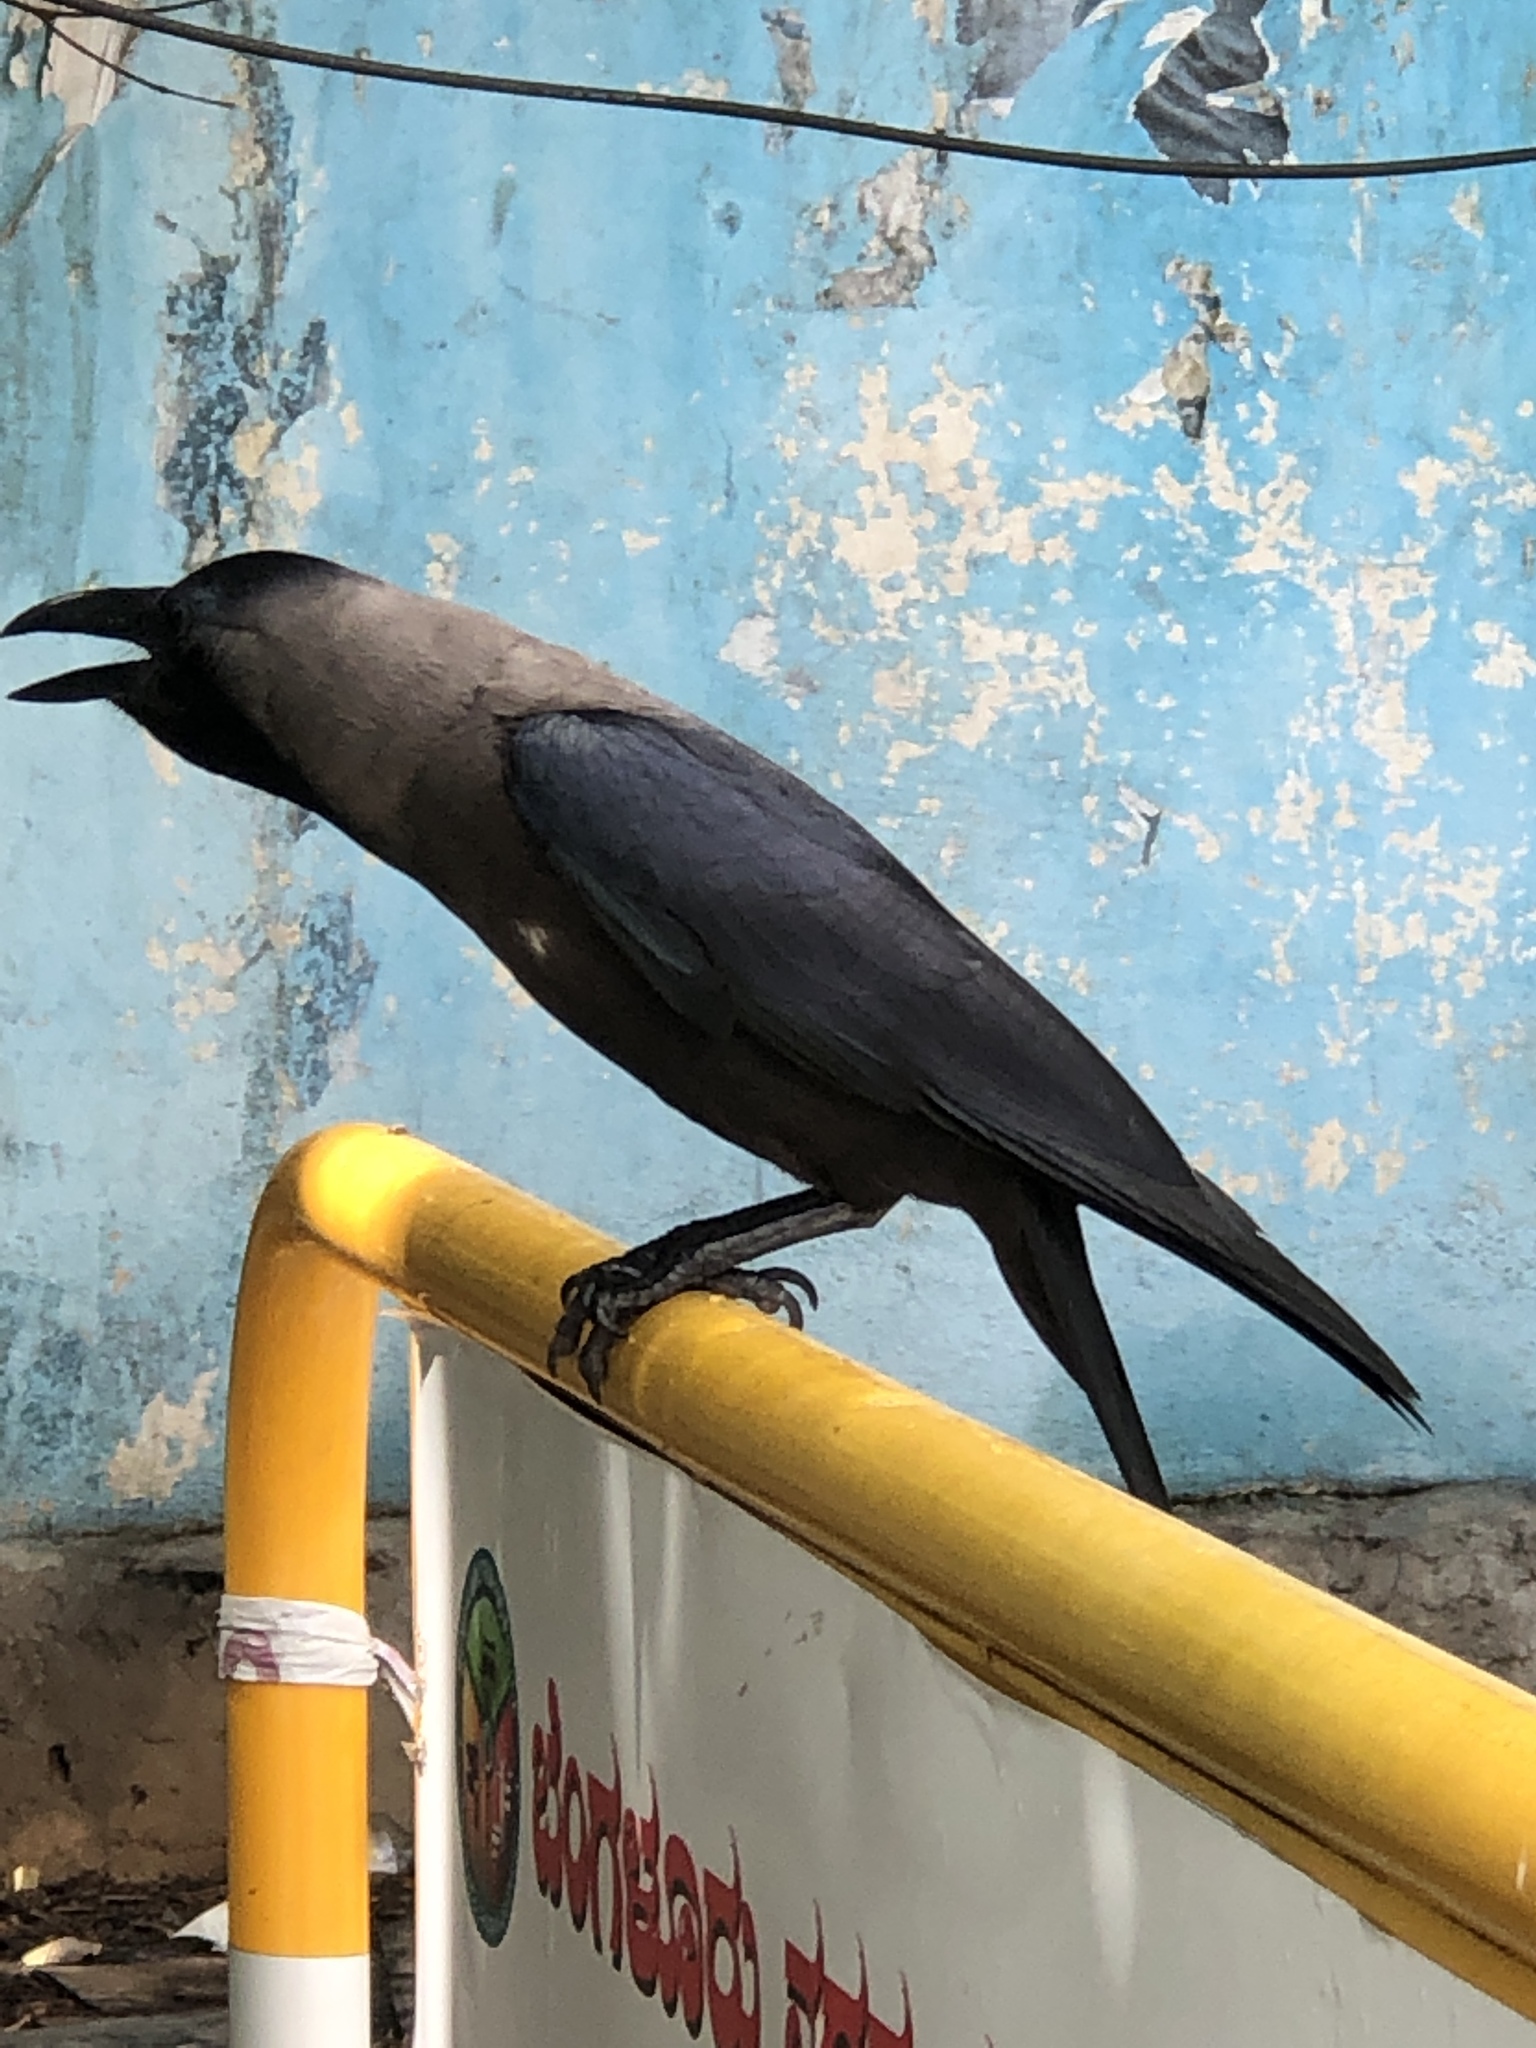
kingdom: Animalia
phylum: Chordata
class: Aves
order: Passeriformes
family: Corvidae
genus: Corvus
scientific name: Corvus splendens
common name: House crow
